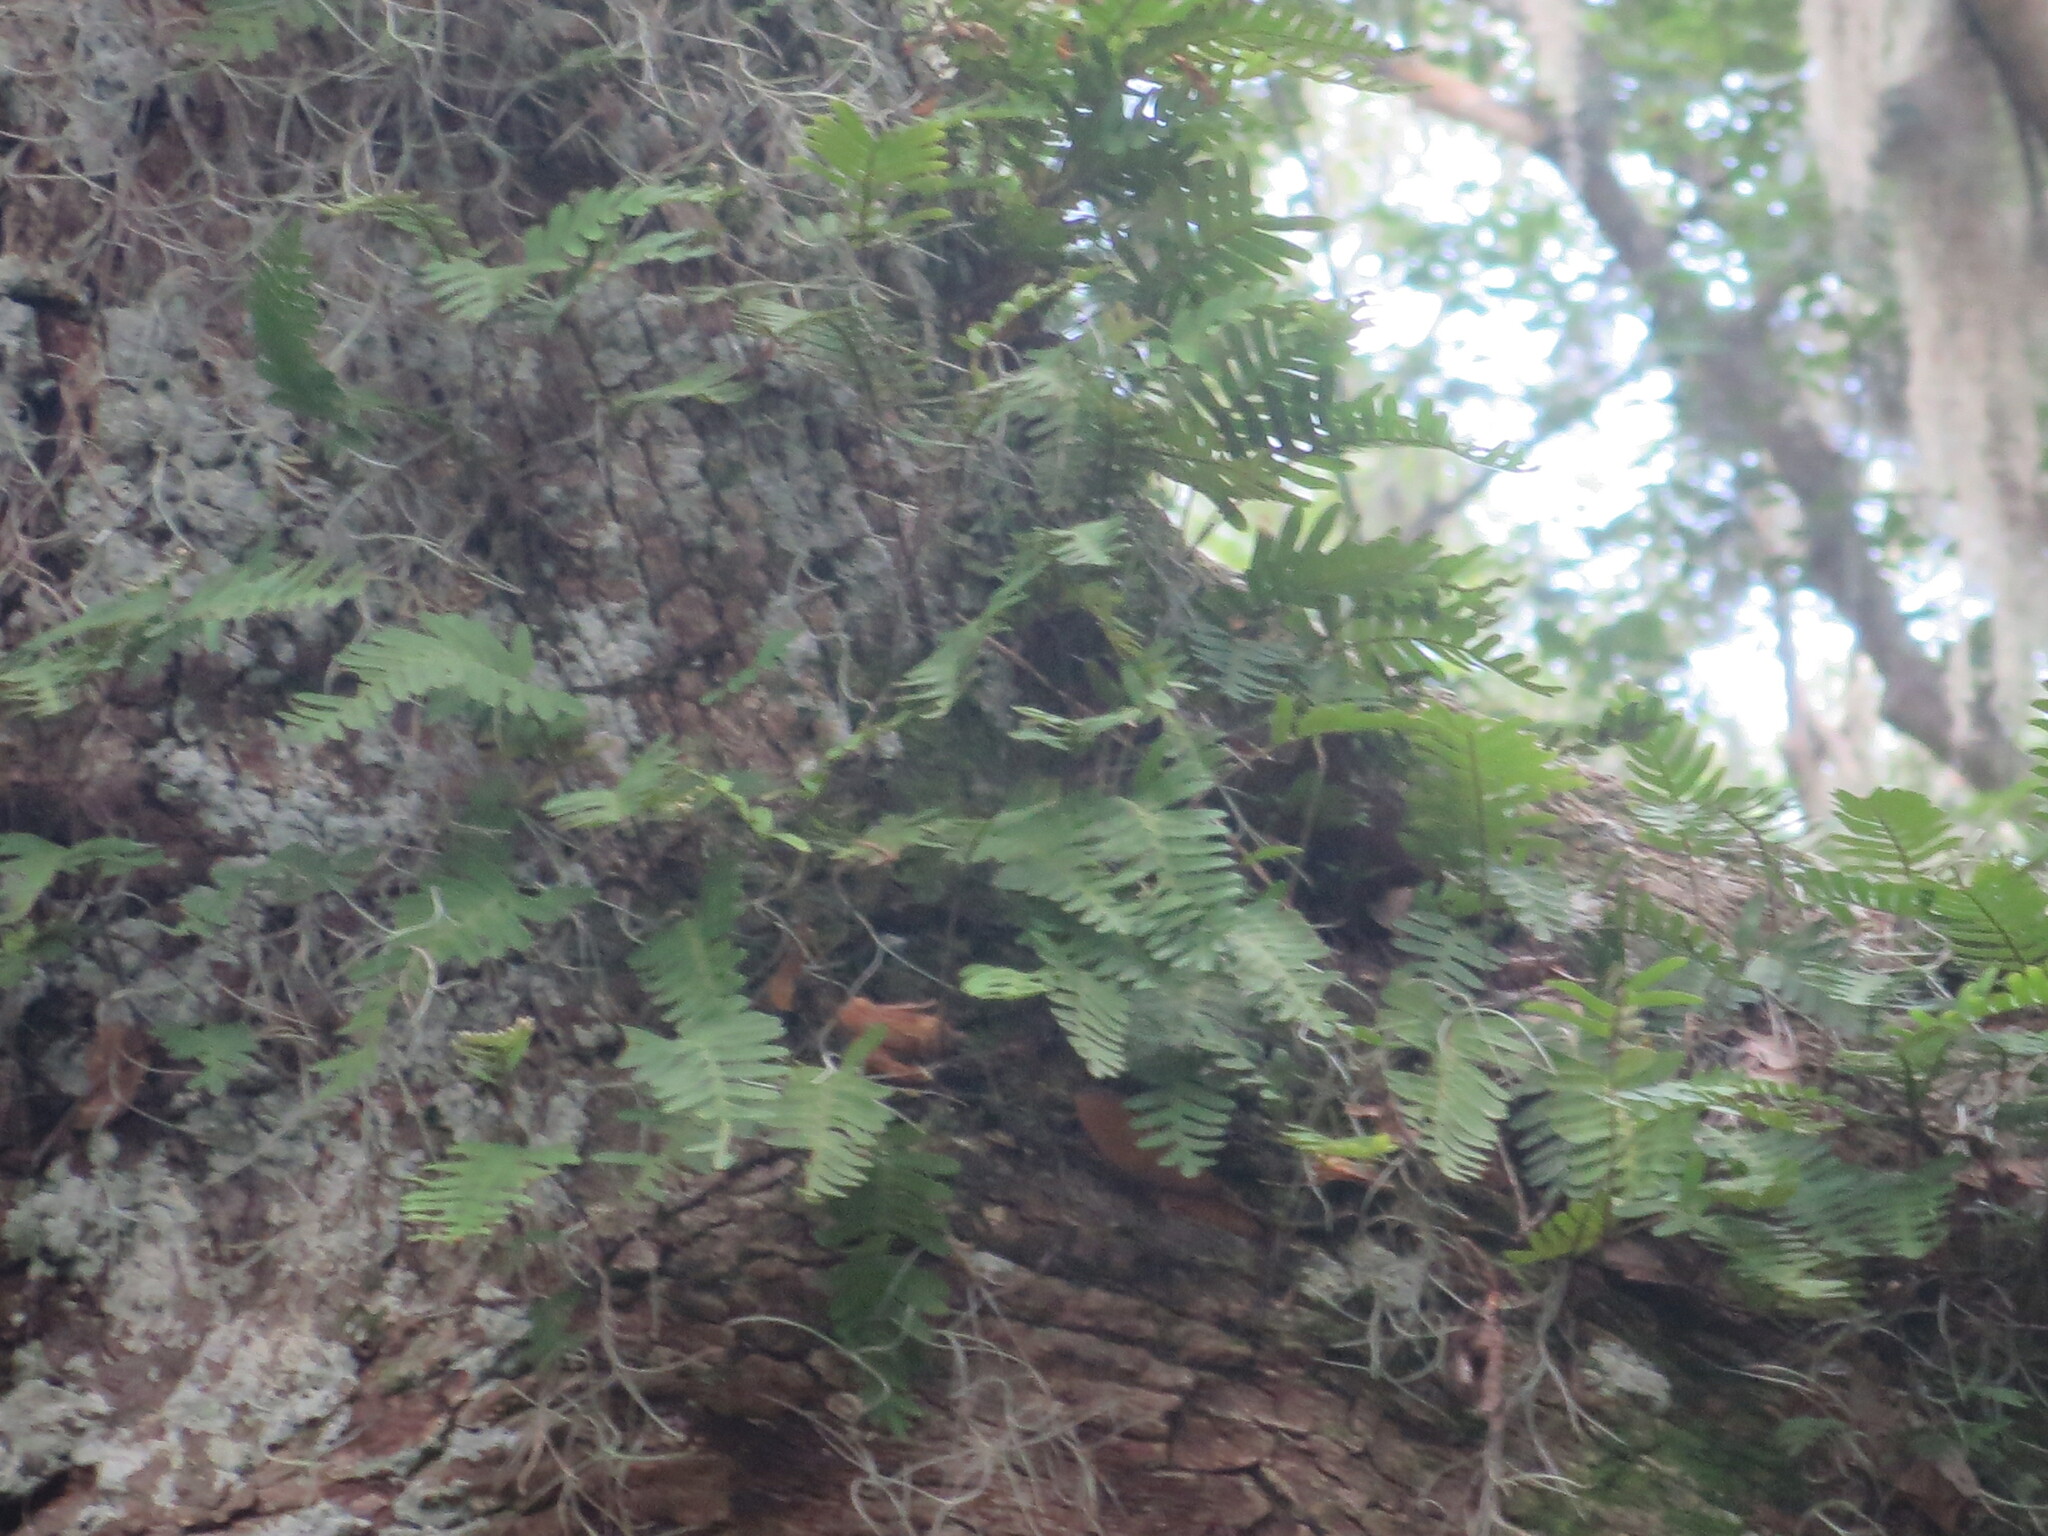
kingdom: Plantae
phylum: Tracheophyta
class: Polypodiopsida
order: Polypodiales
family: Polypodiaceae
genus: Pleopeltis
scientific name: Pleopeltis michauxiana
